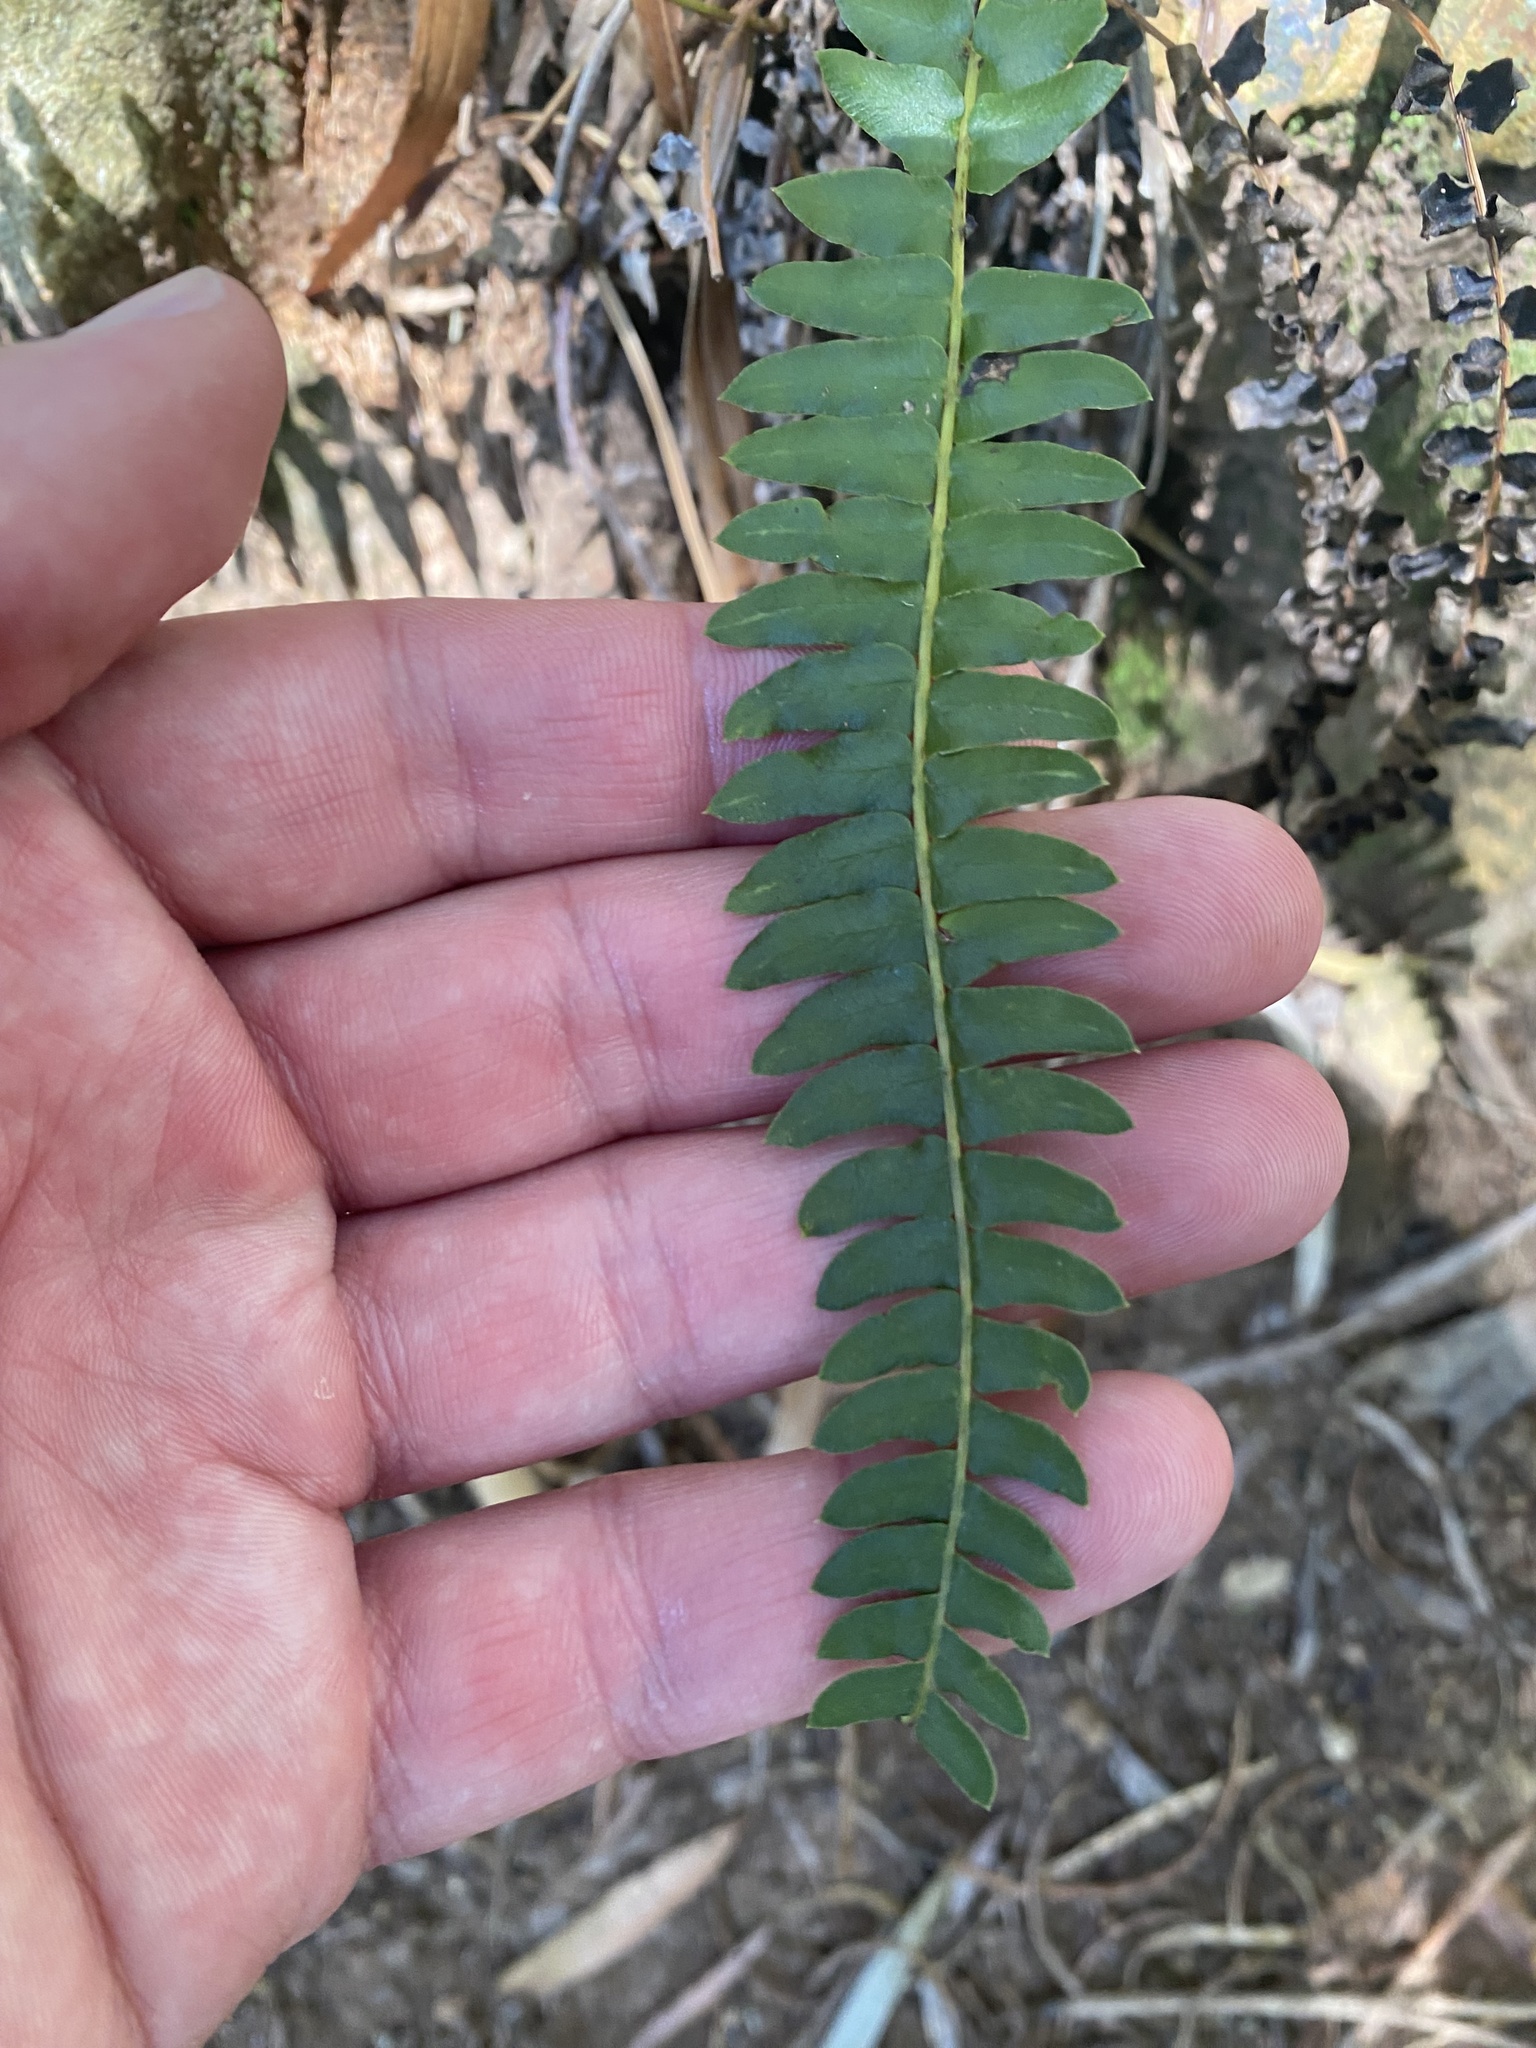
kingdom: Plantae
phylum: Tracheophyta
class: Polypodiopsida
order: Polypodiales
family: Blechnaceae
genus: Blechnum
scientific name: Blechnum australe
